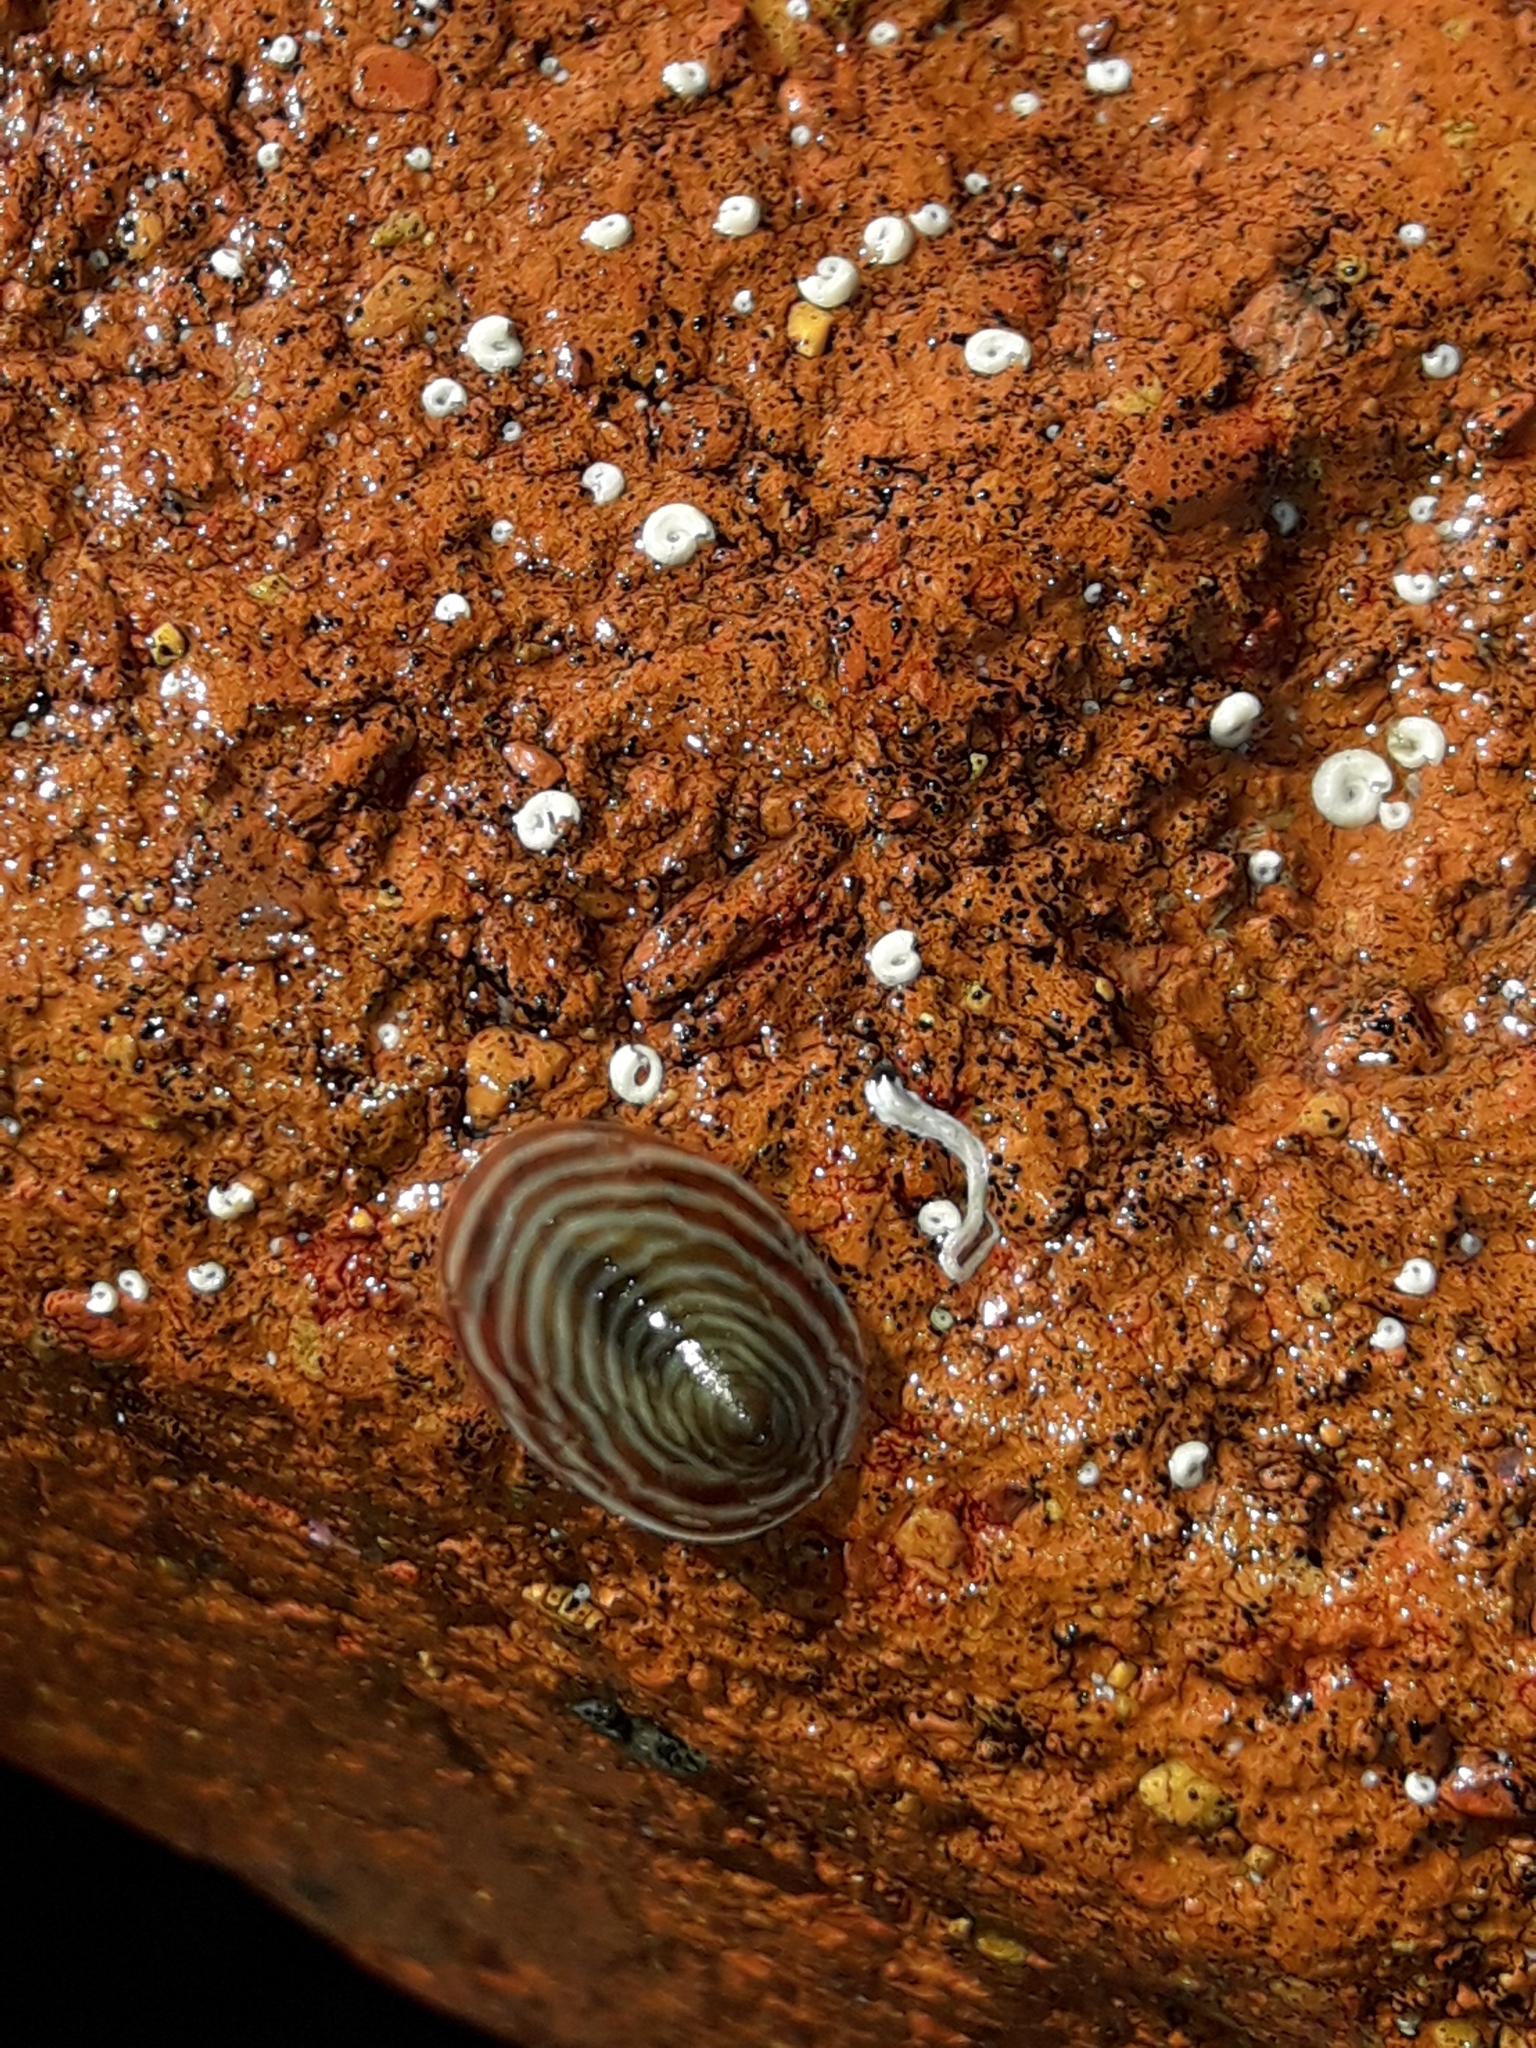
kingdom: Animalia
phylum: Mollusca
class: Gastropoda
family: Lottiidae
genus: Atalacmea
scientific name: Atalacmea fragilis
